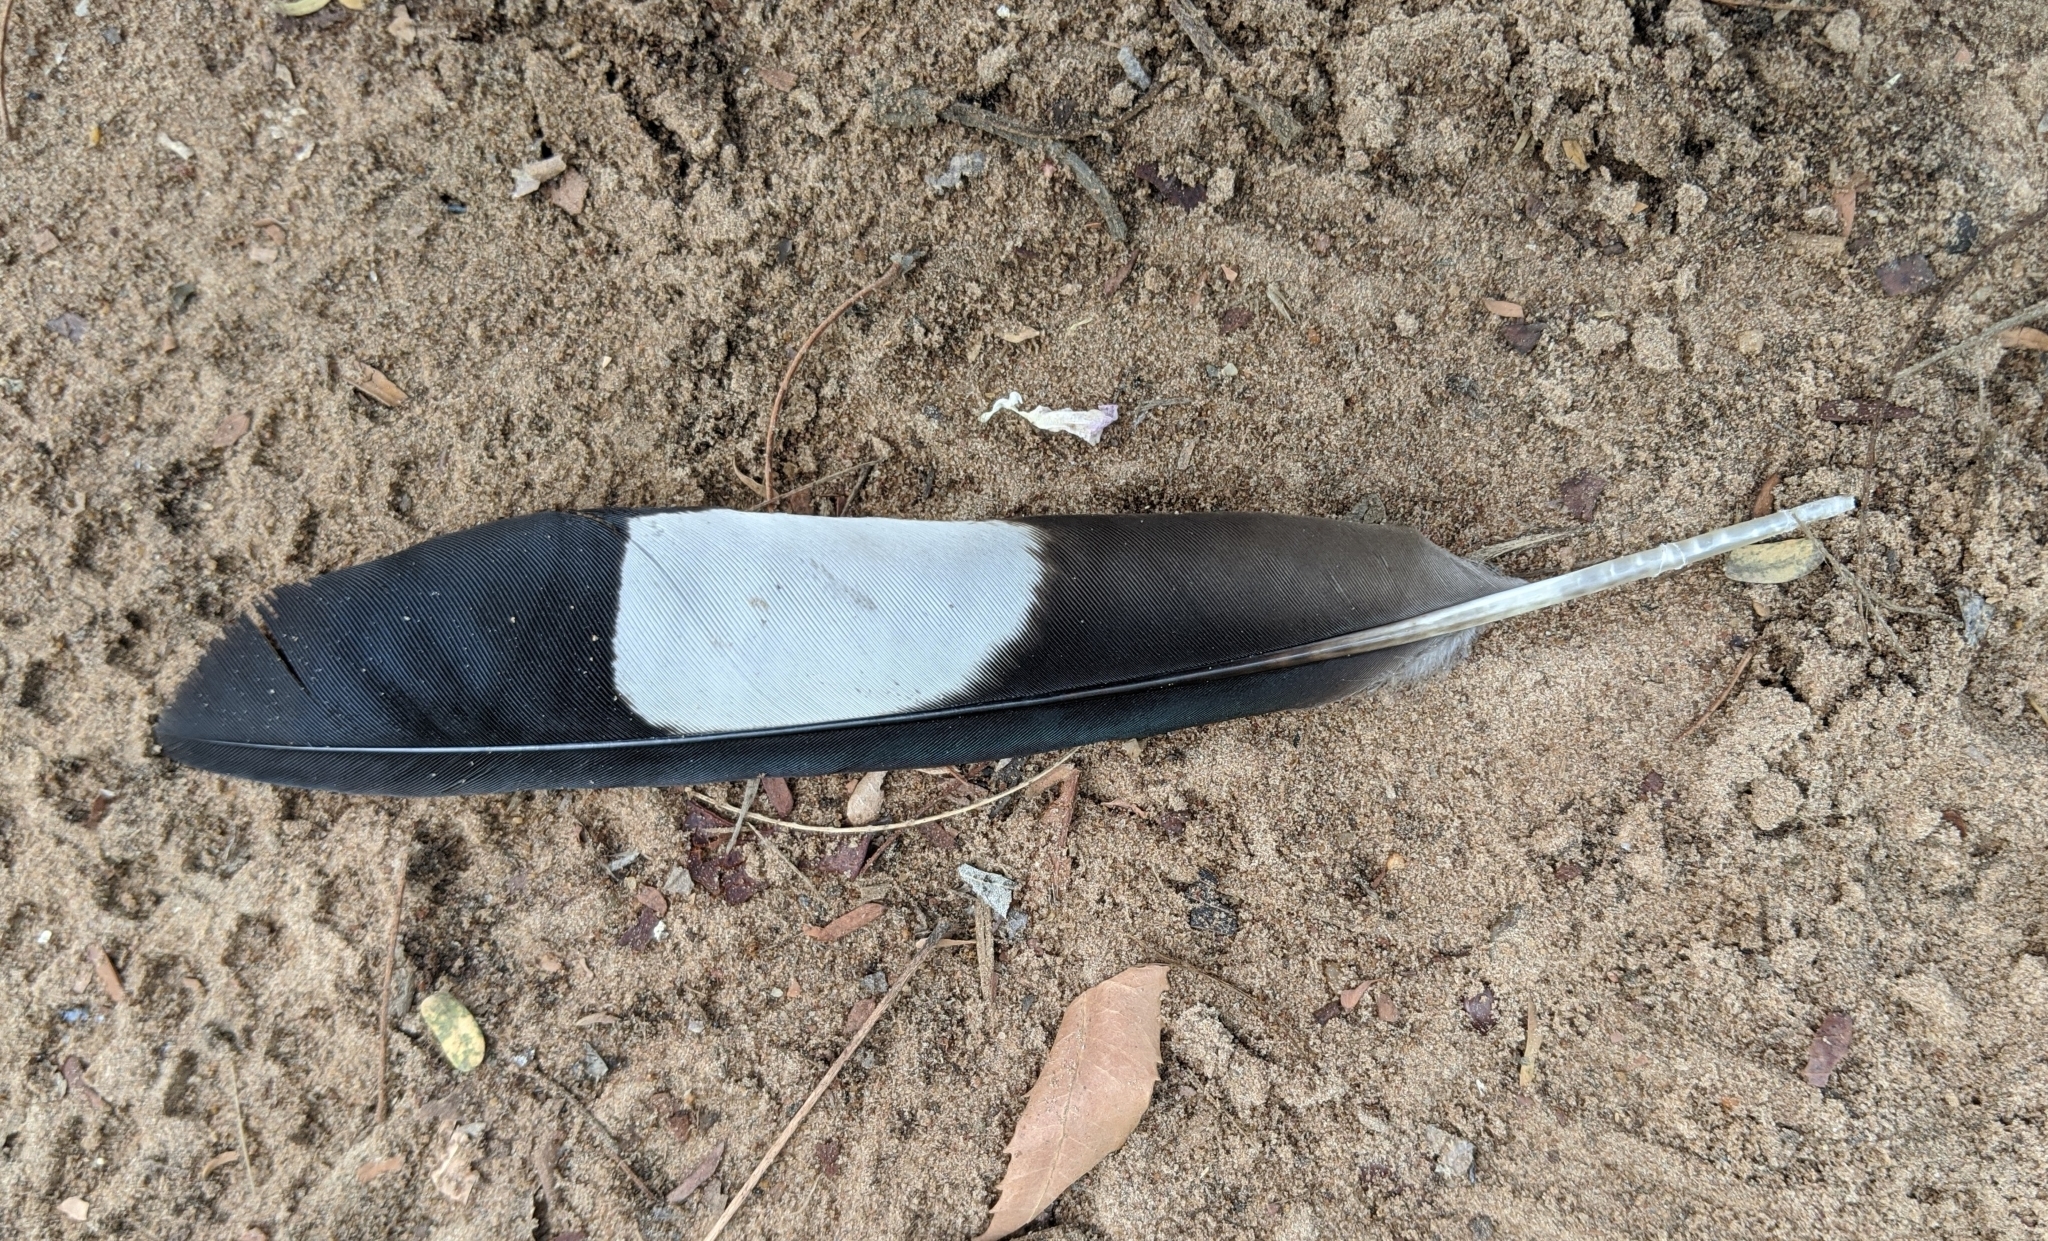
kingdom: Animalia
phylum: Chordata
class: Aves
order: Musophagiformes
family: Musophagidae
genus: Crinifer
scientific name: Crinifer piscator
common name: Western plantain-eater
